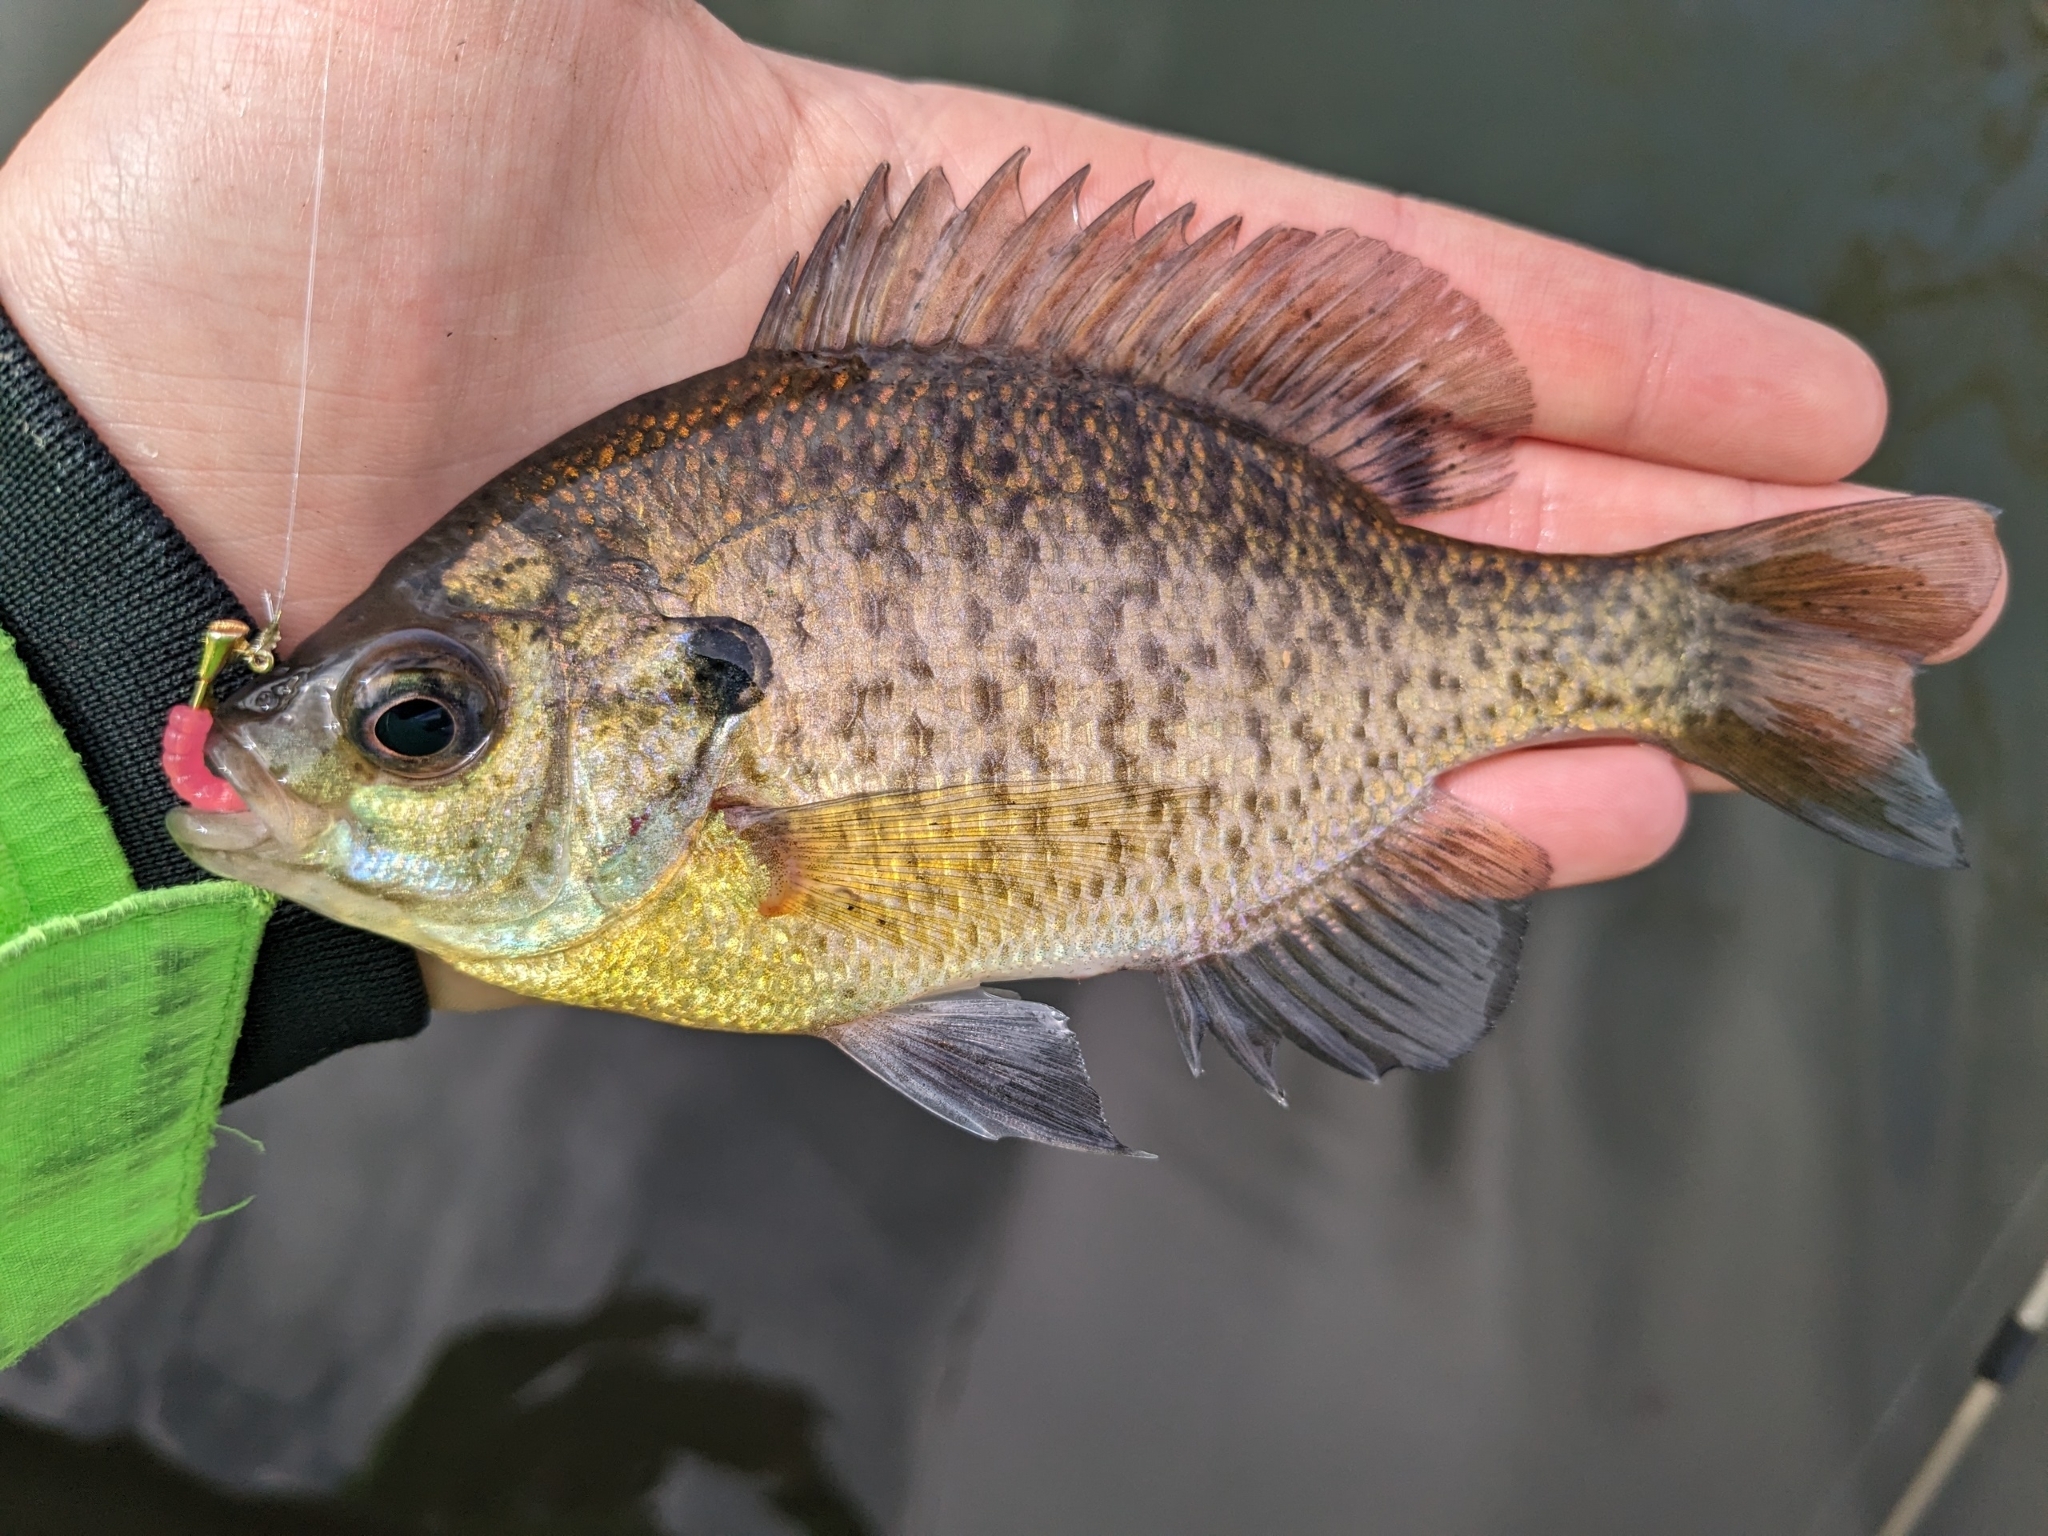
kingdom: Animalia
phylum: Chordata
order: Perciformes
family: Centrarchidae
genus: Lepomis
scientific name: Lepomis macrochirus
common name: Bluegill
